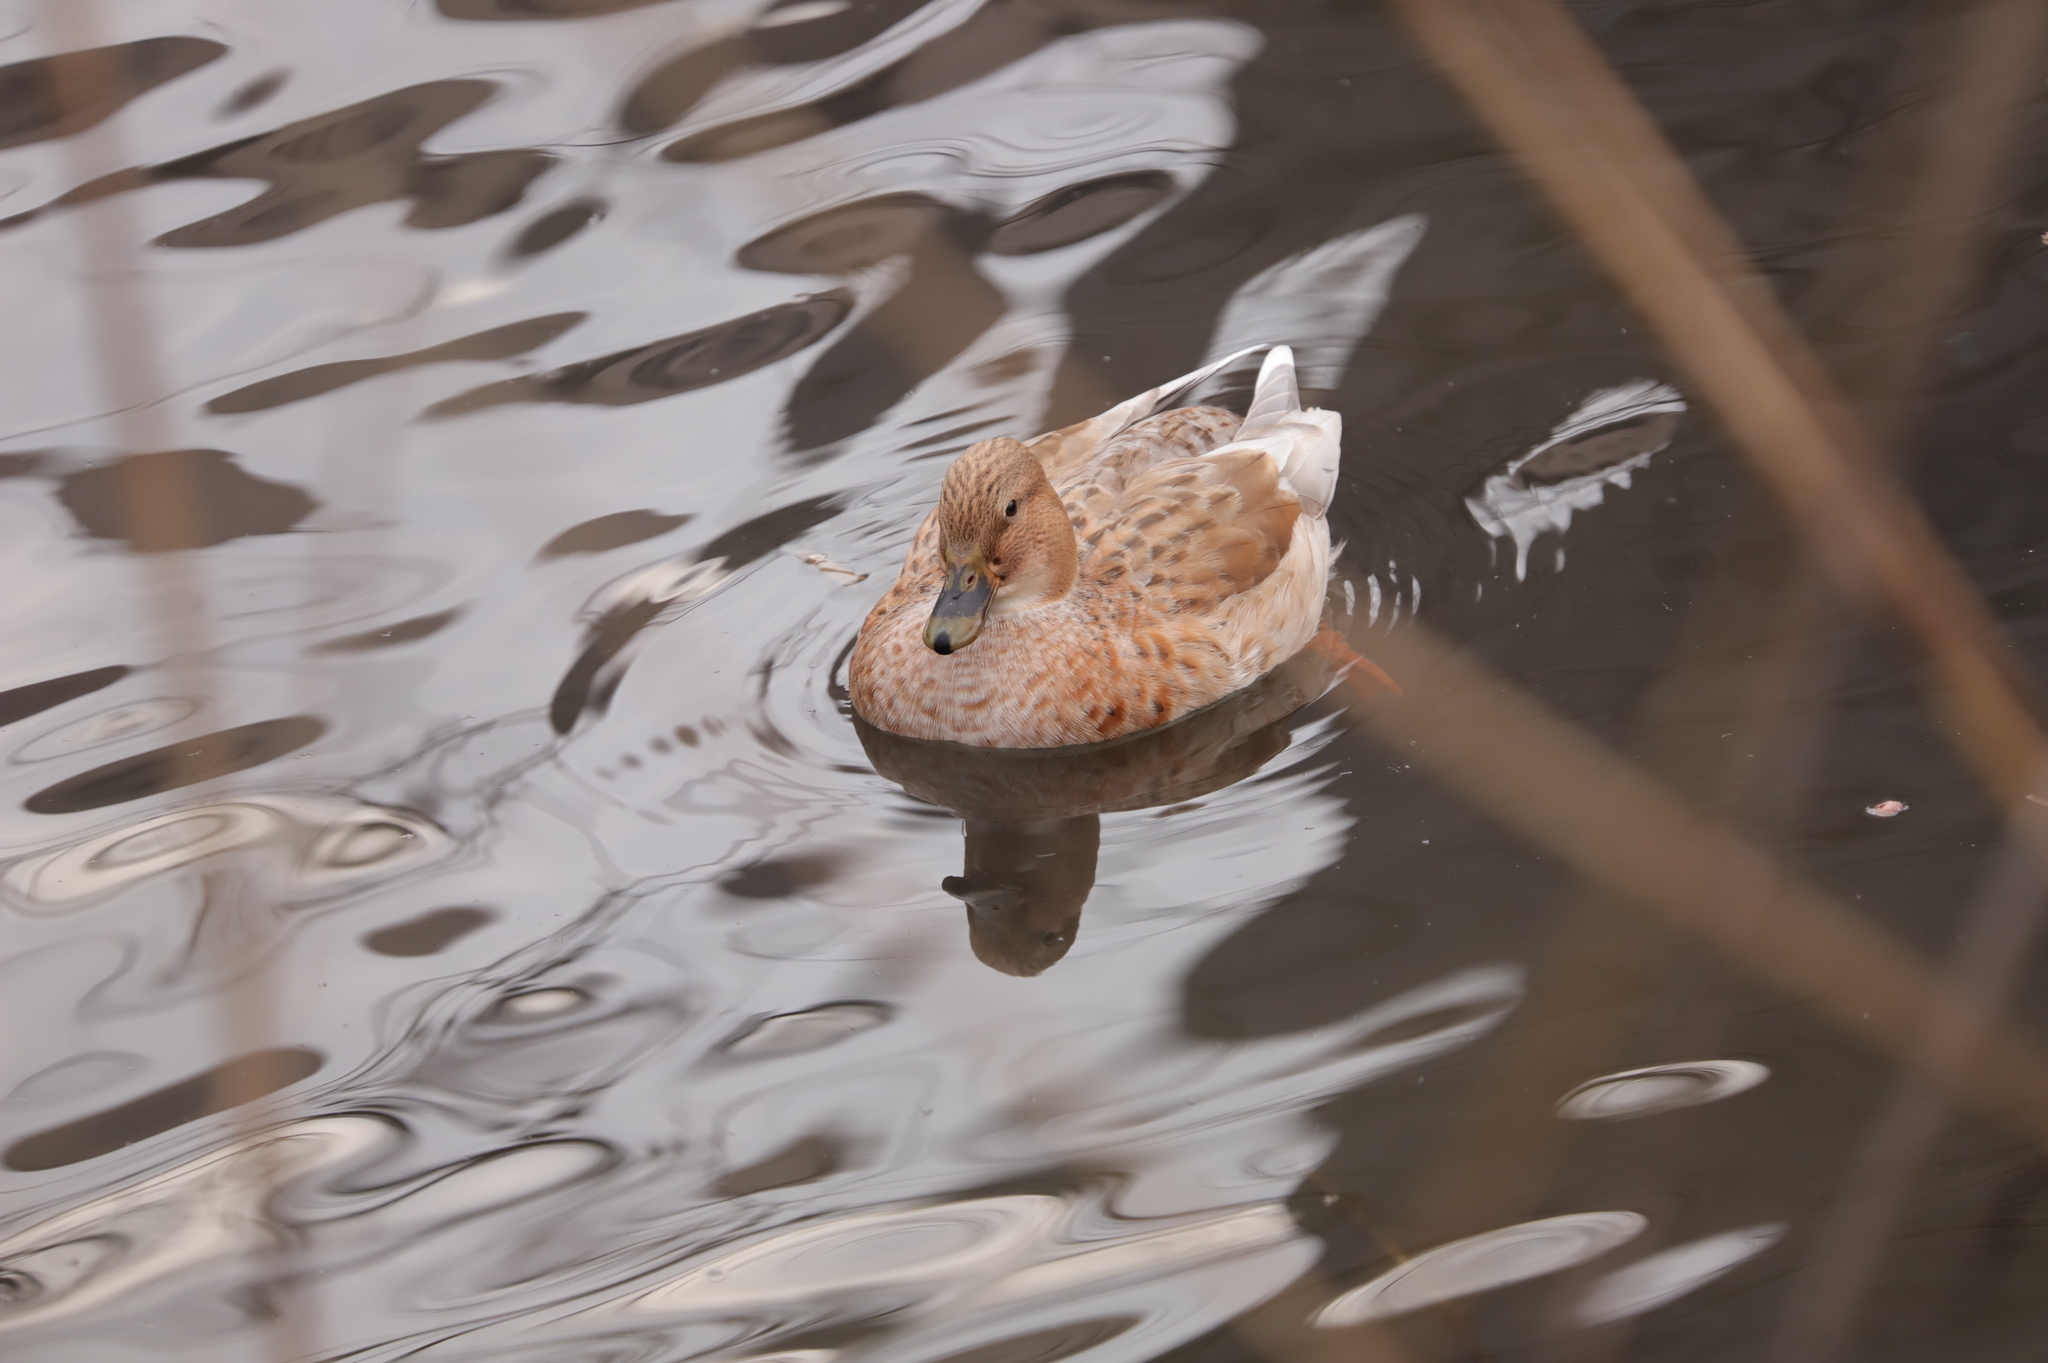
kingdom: Animalia
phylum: Chordata
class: Aves
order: Anseriformes
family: Anatidae
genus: Anas
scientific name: Anas platyrhynchos
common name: Mallard
